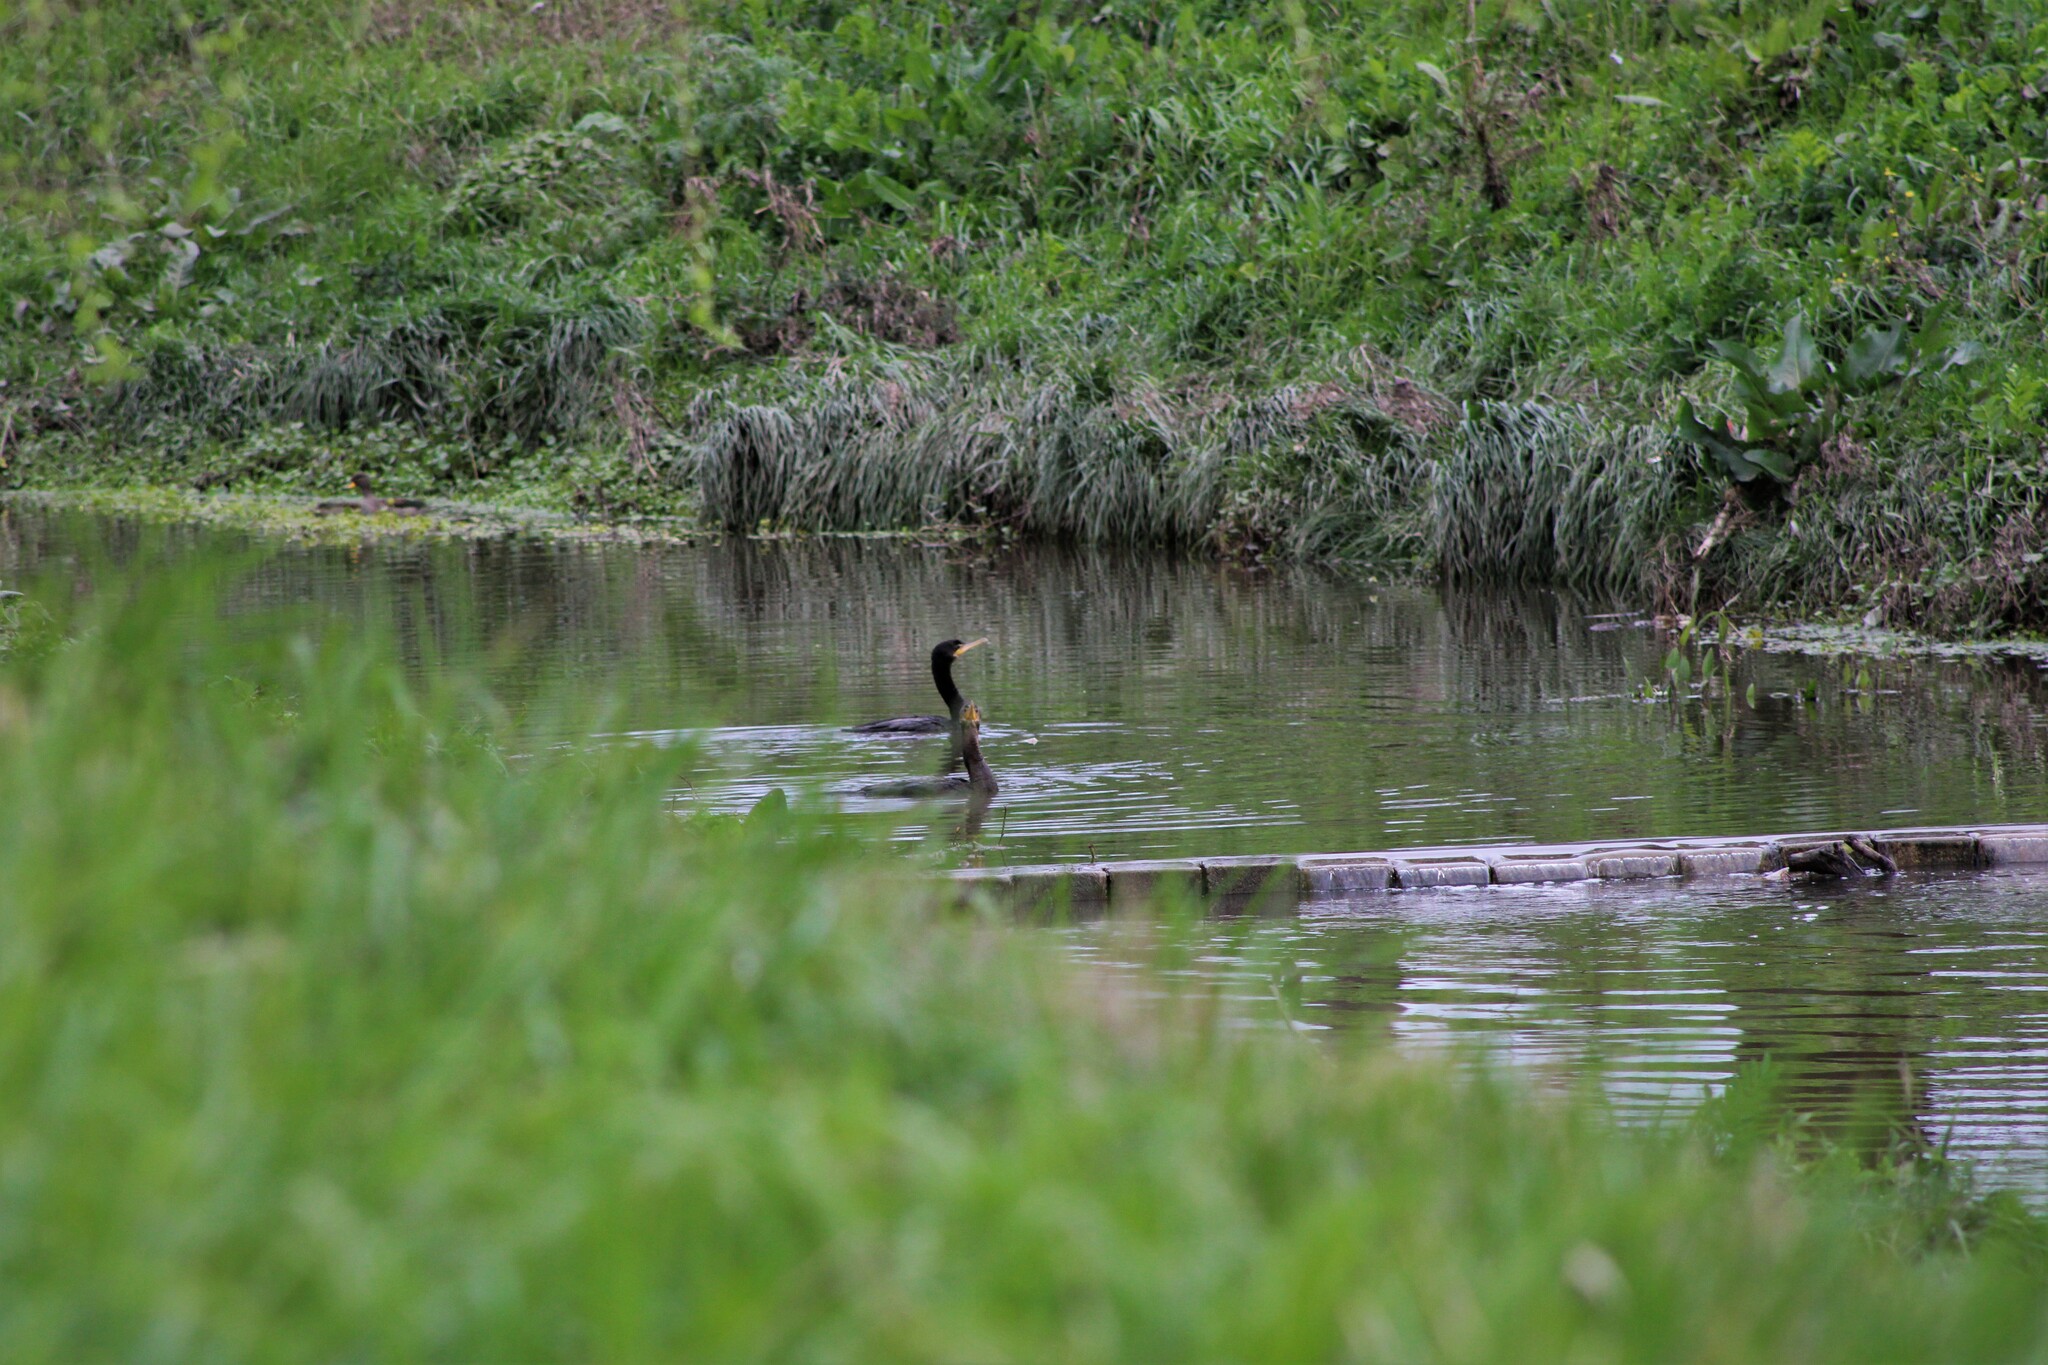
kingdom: Animalia
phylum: Chordata
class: Aves
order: Suliformes
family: Phalacrocoracidae
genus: Phalacrocorax
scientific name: Phalacrocorax brasilianus
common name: Neotropic cormorant
